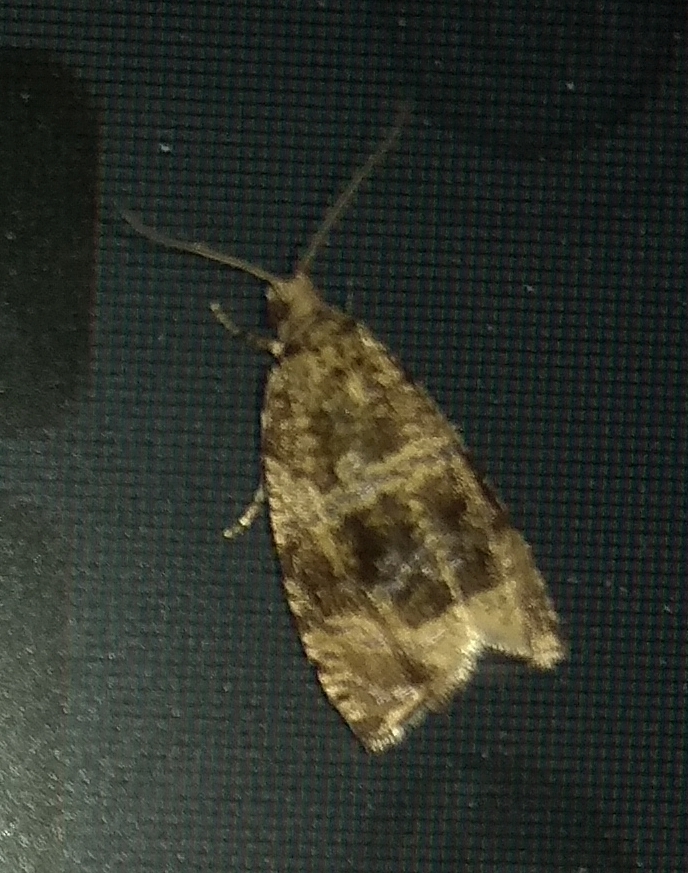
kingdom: Animalia
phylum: Arthropoda
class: Insecta
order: Lepidoptera
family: Tortricidae
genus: Syricoris
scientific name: Syricoris lacunana
